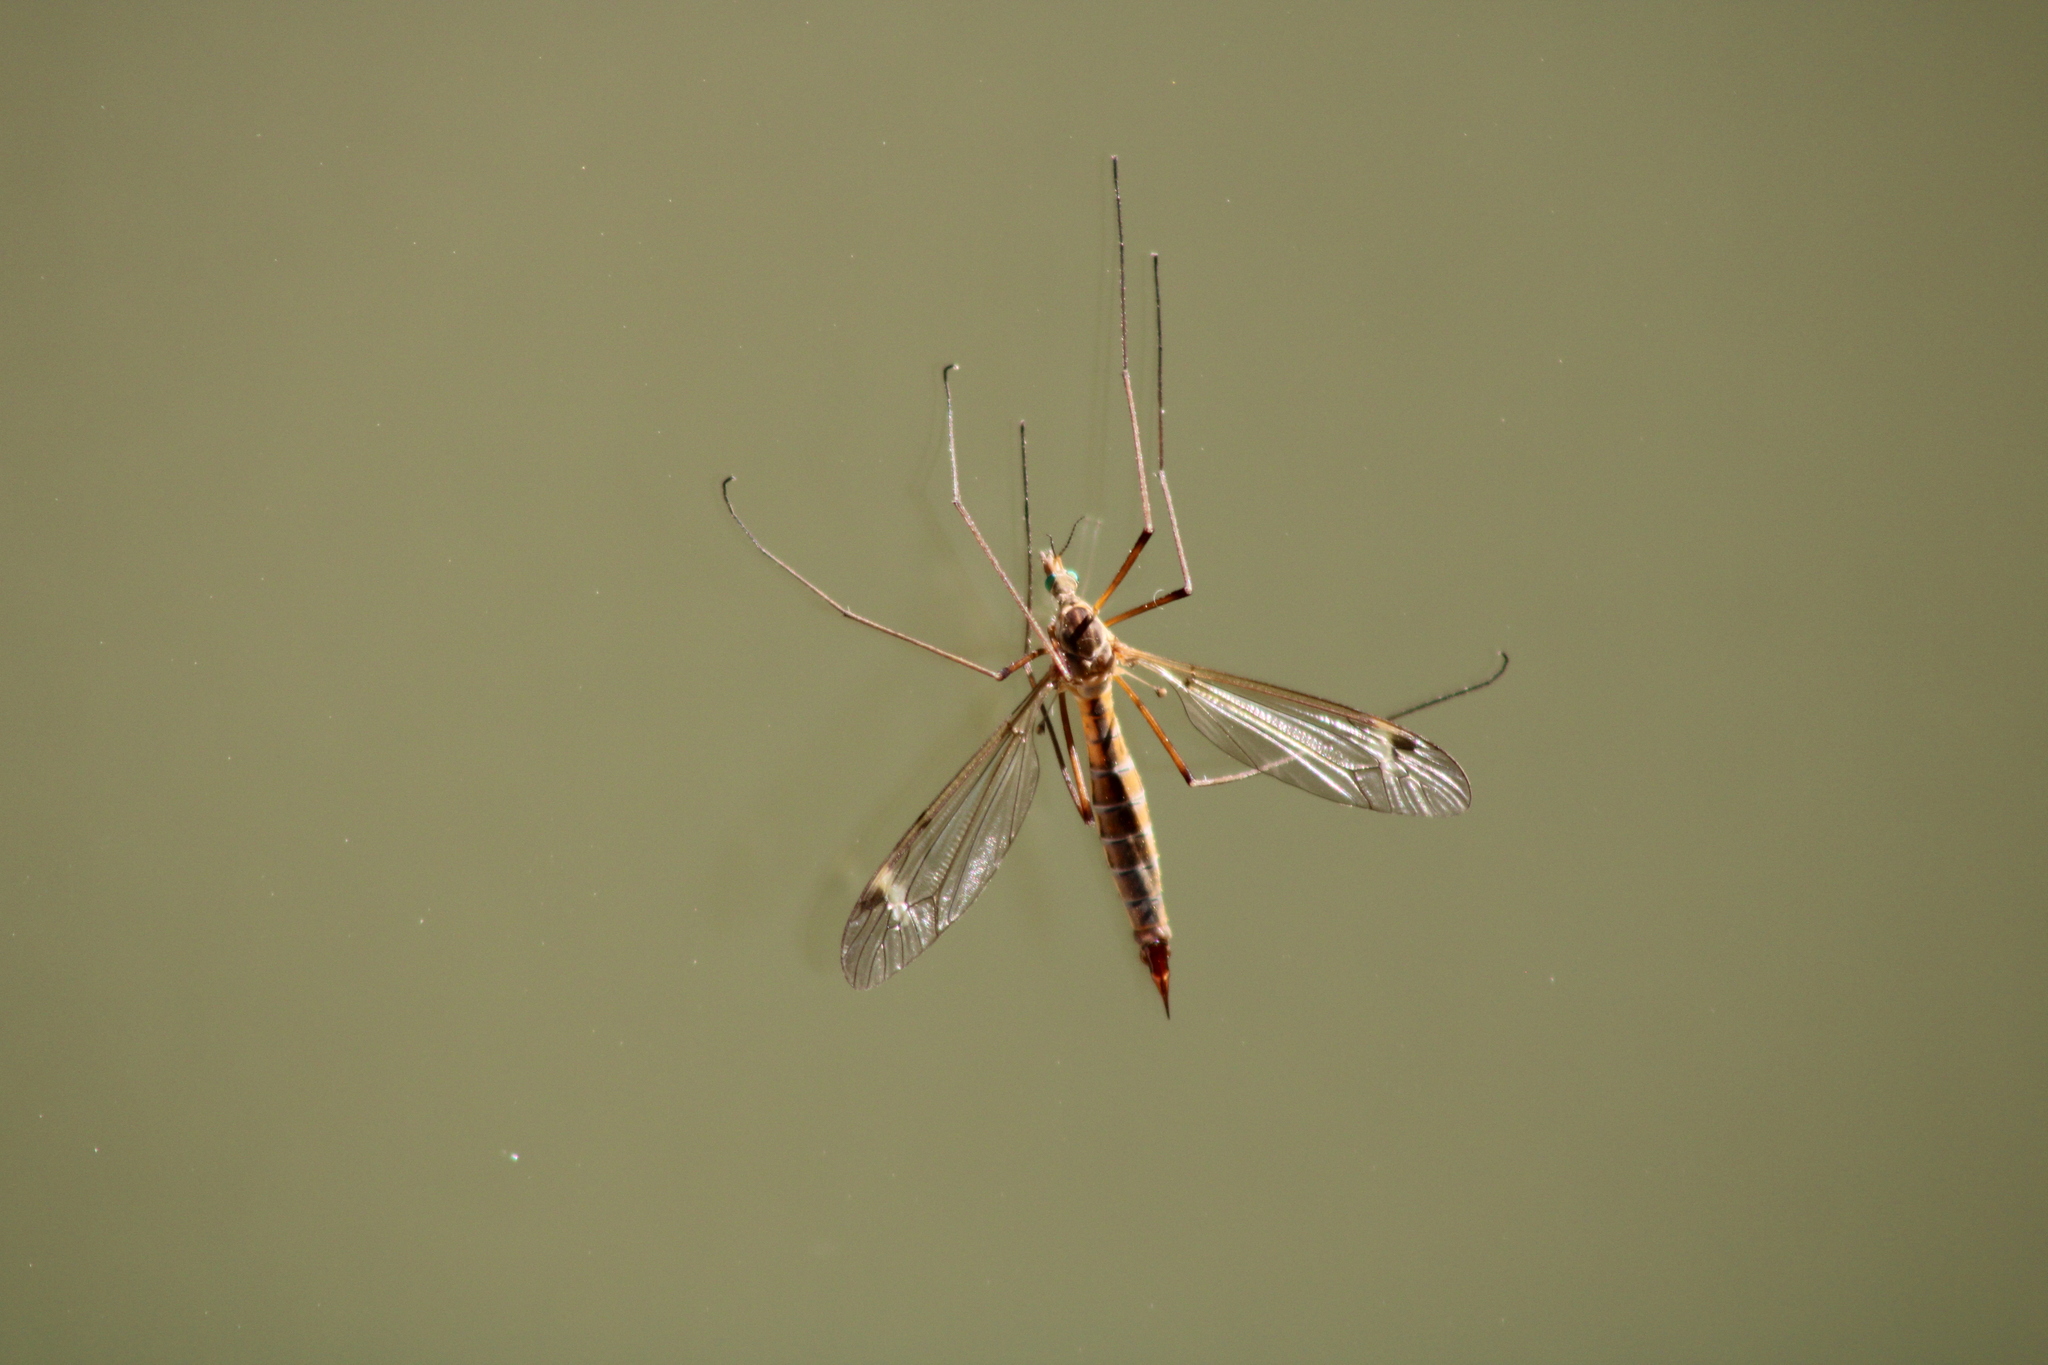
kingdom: Animalia
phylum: Arthropoda
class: Insecta
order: Diptera
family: Tipulidae
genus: Tipula
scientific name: Tipula bezzii
